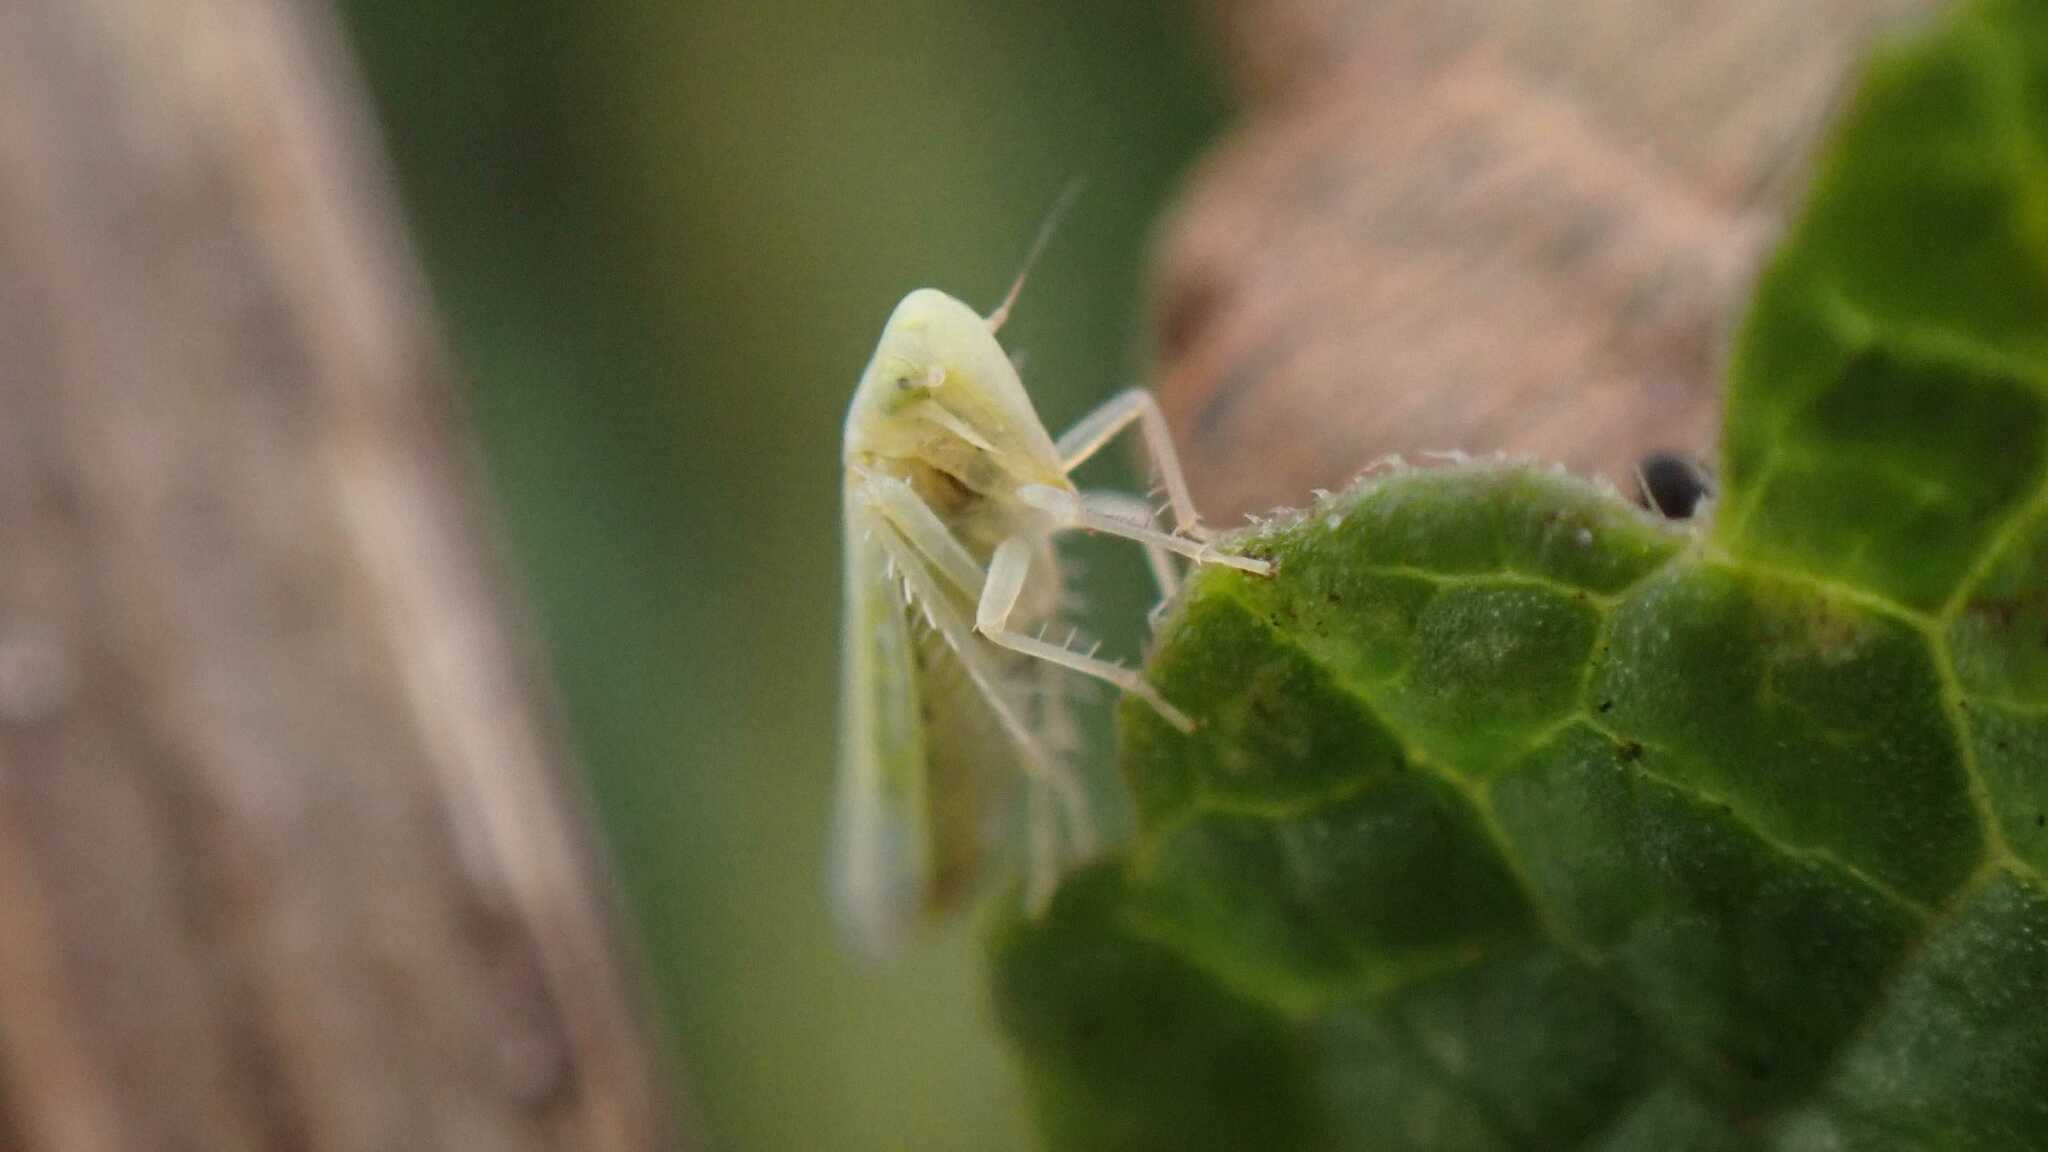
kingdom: Animalia
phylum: Arthropoda
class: Insecta
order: Hemiptera
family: Cicadellidae
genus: Emelyanoviana
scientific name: Emelyanoviana mollicula
